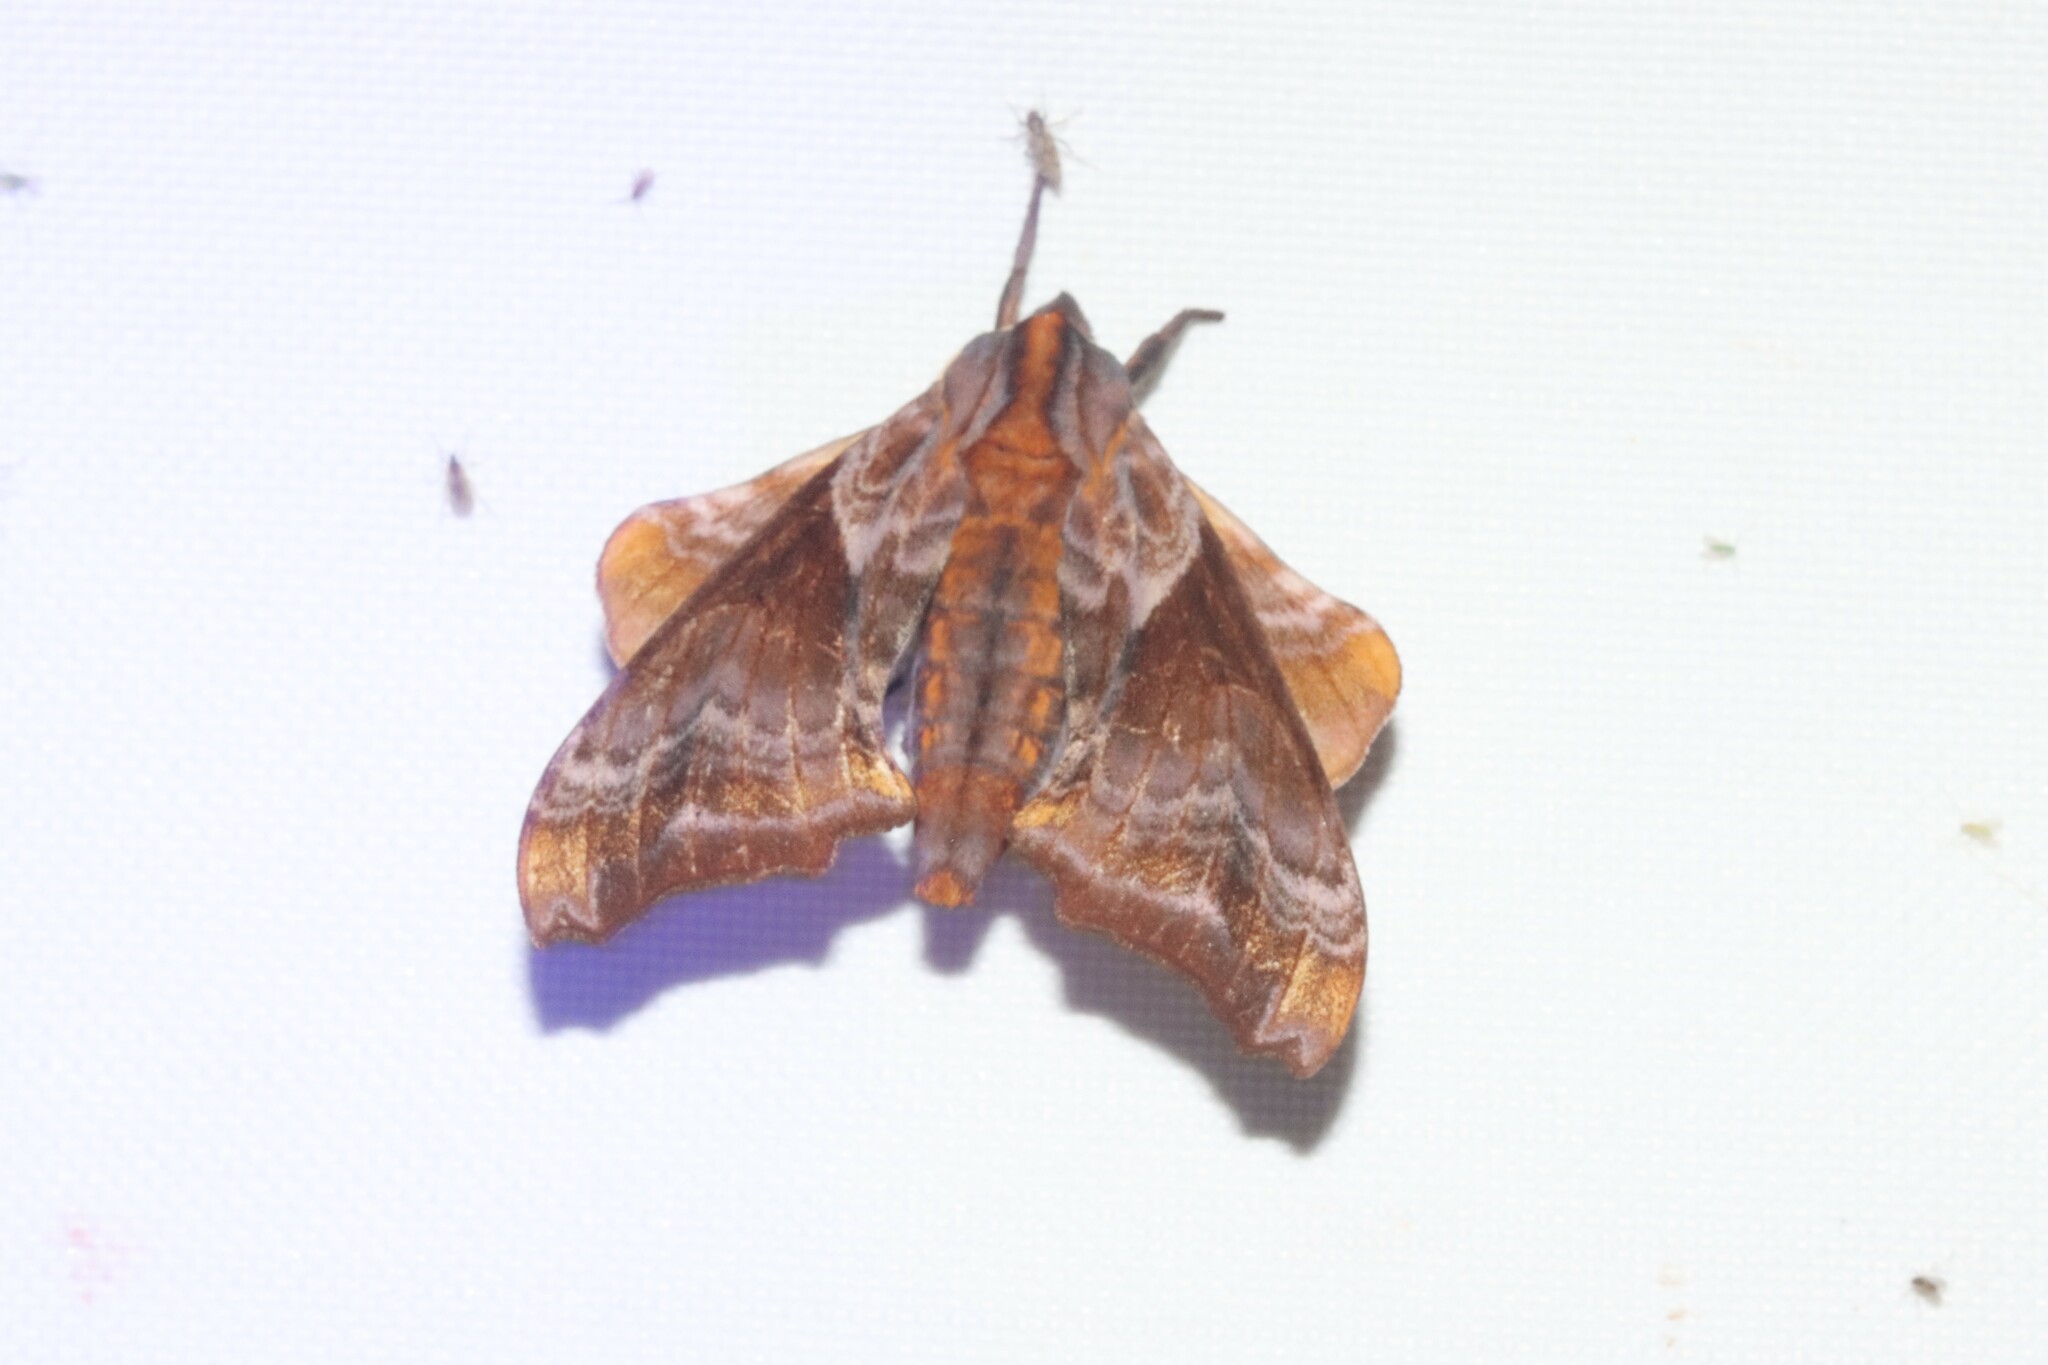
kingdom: Animalia
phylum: Arthropoda
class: Insecta
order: Lepidoptera
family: Sphingidae
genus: Paonias
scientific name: Paonias myops
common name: Small-eyed sphinx
